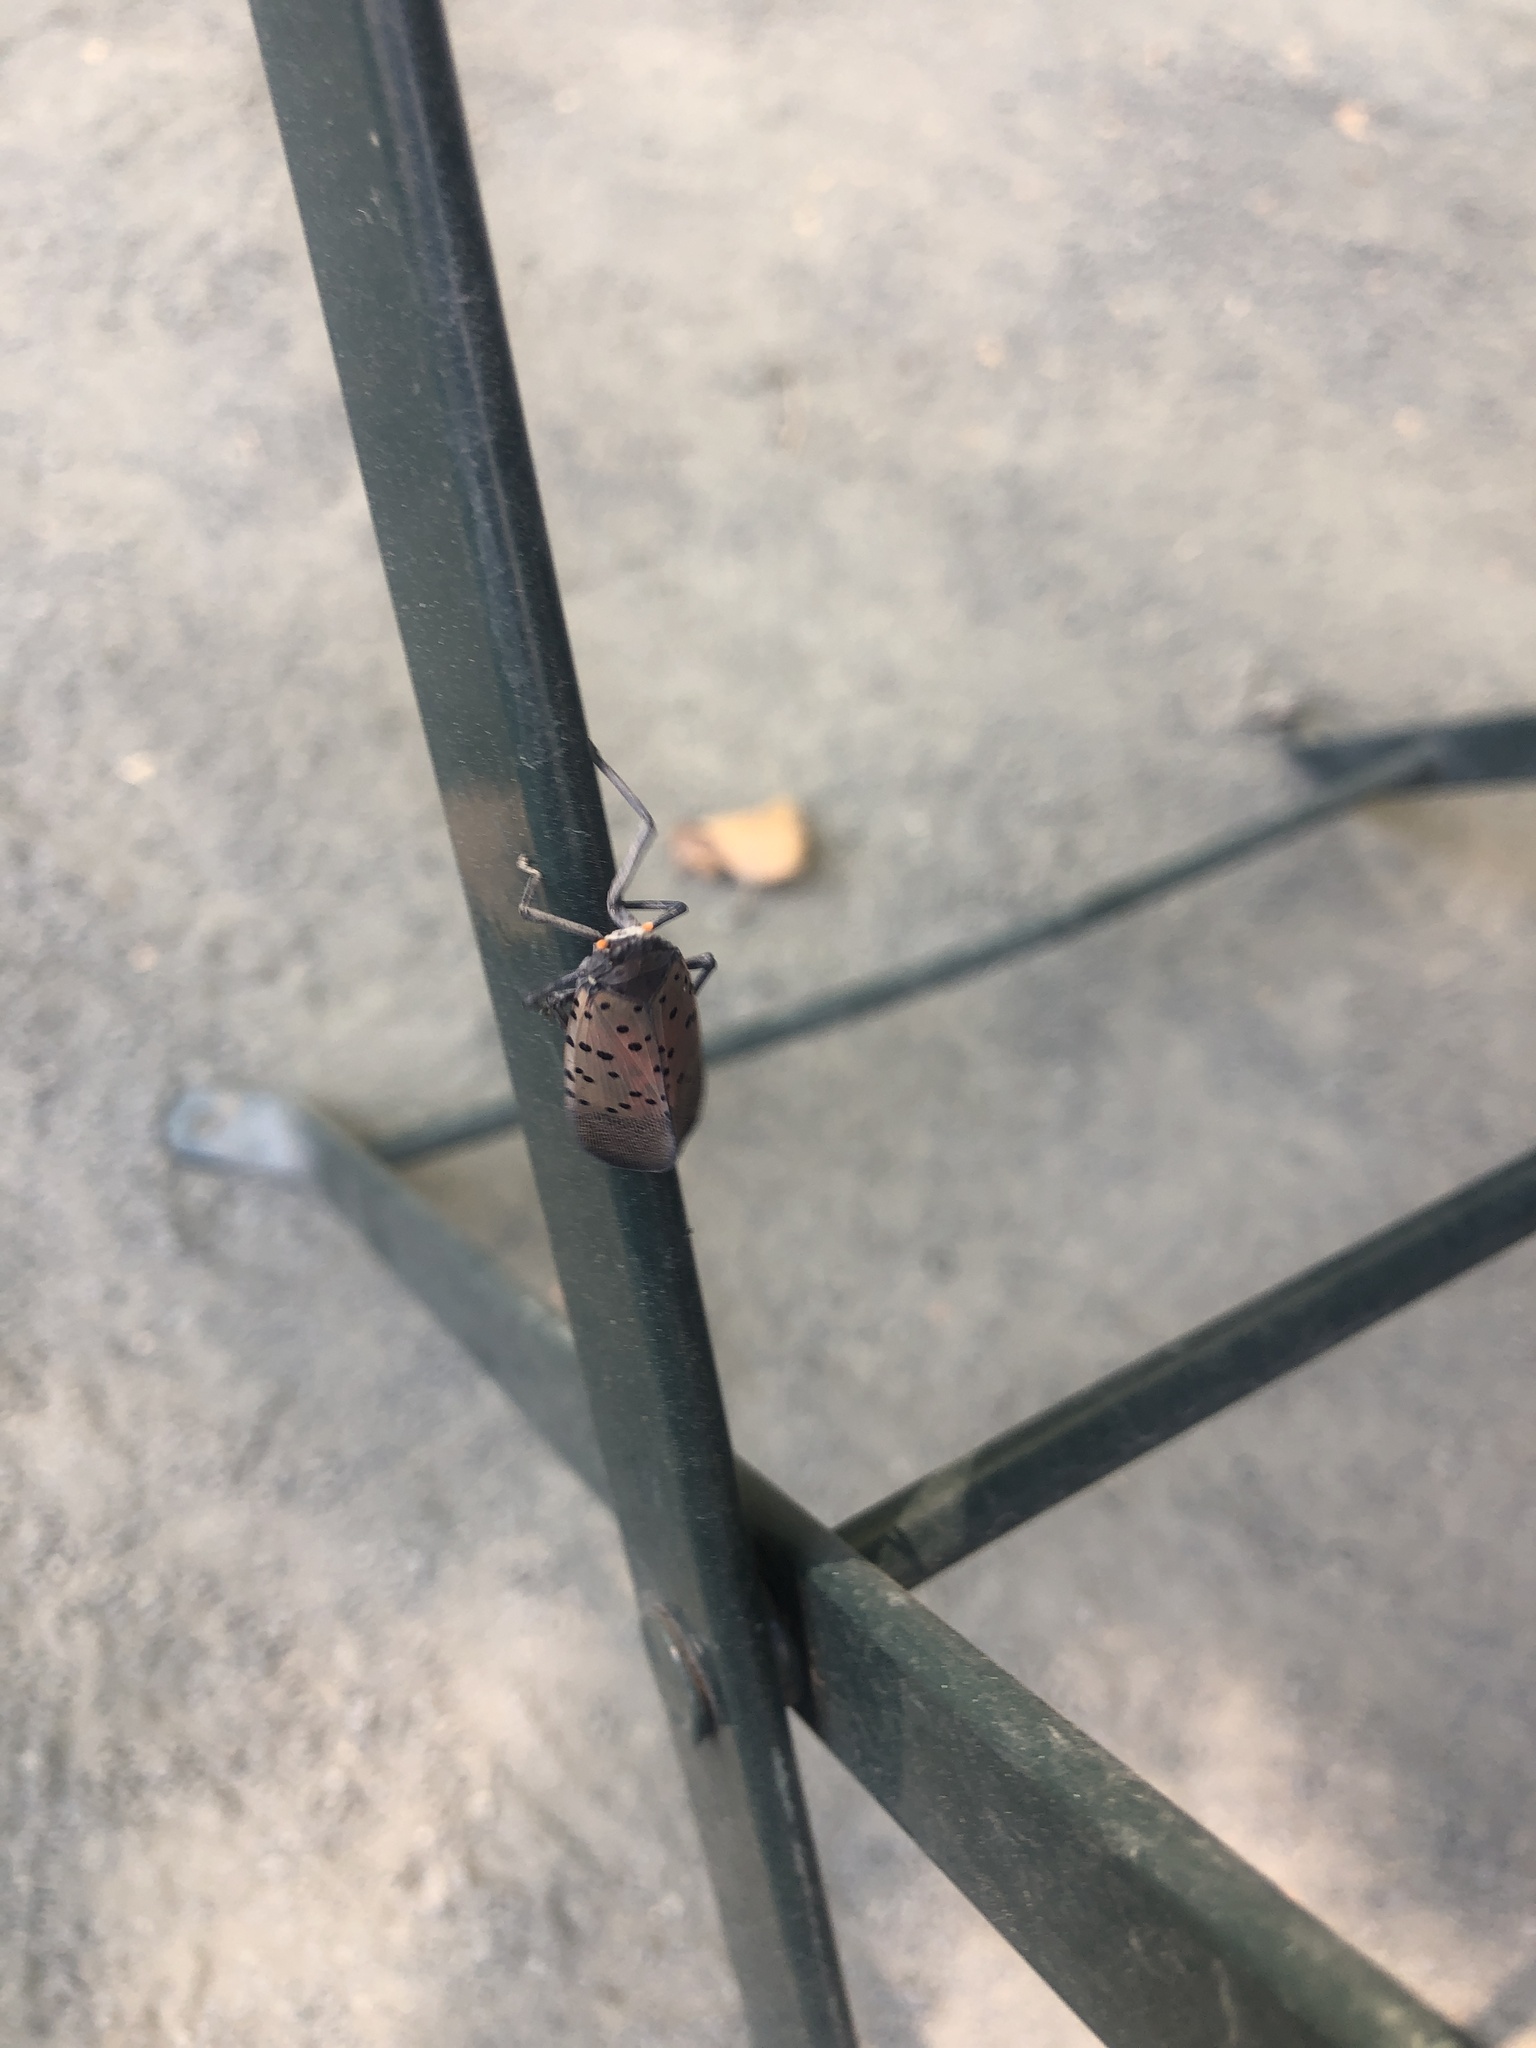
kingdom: Animalia
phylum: Arthropoda
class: Insecta
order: Hemiptera
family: Fulgoridae
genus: Lycorma
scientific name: Lycorma delicatula
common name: Spotted lanternfly
